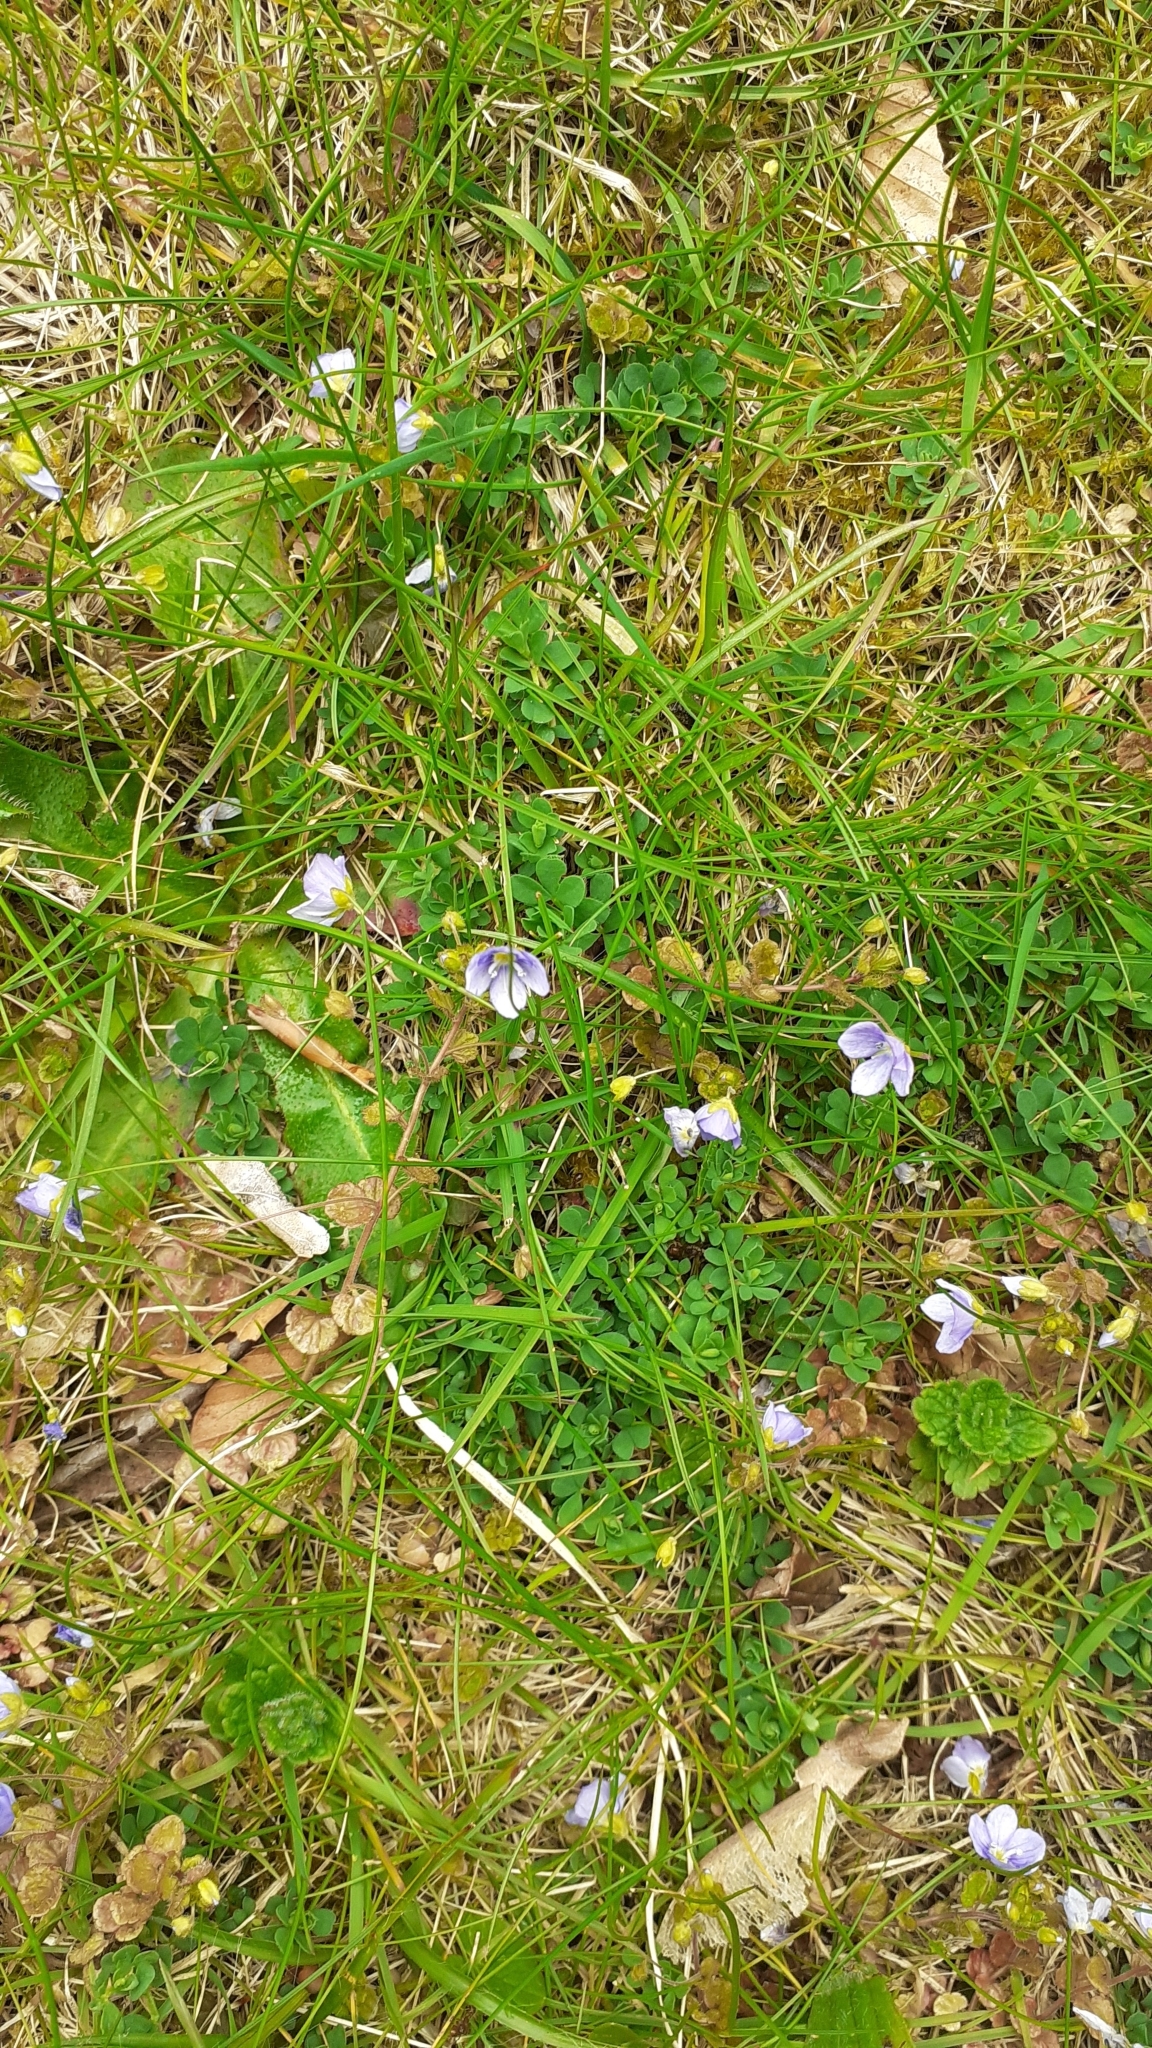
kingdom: Plantae
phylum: Tracheophyta
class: Magnoliopsida
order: Lamiales
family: Plantaginaceae
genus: Veronica
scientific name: Veronica filiformis
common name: Slender speedwell
